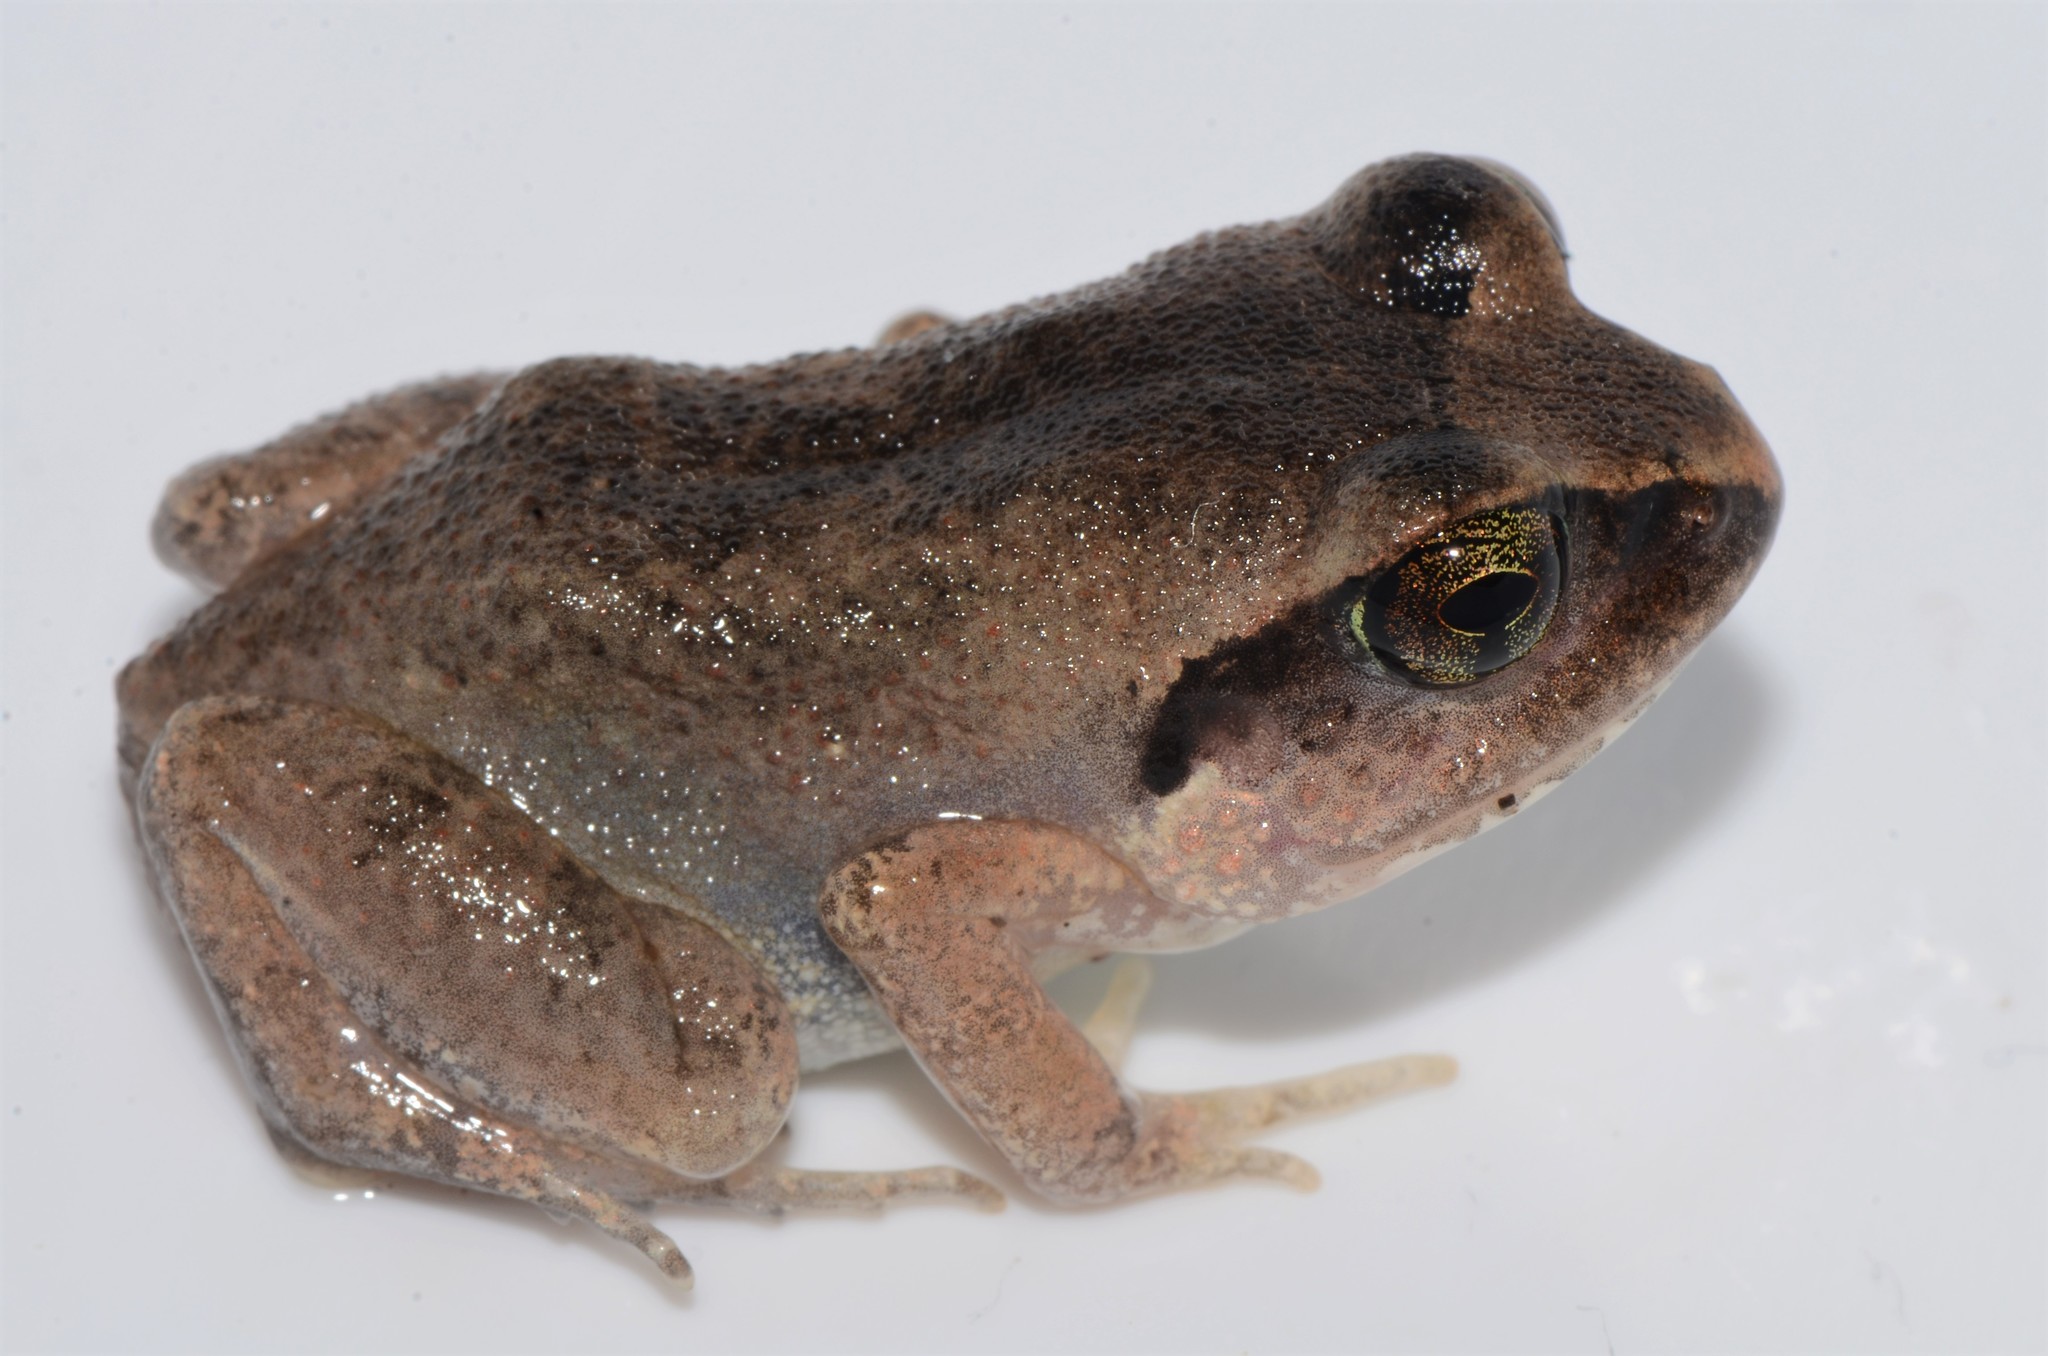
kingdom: Animalia
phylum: Chordata
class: Amphibia
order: Anura
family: Arthroleptidae
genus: Arthroleptis
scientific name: Arthroleptis stenodactylus
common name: Dune squeaker
